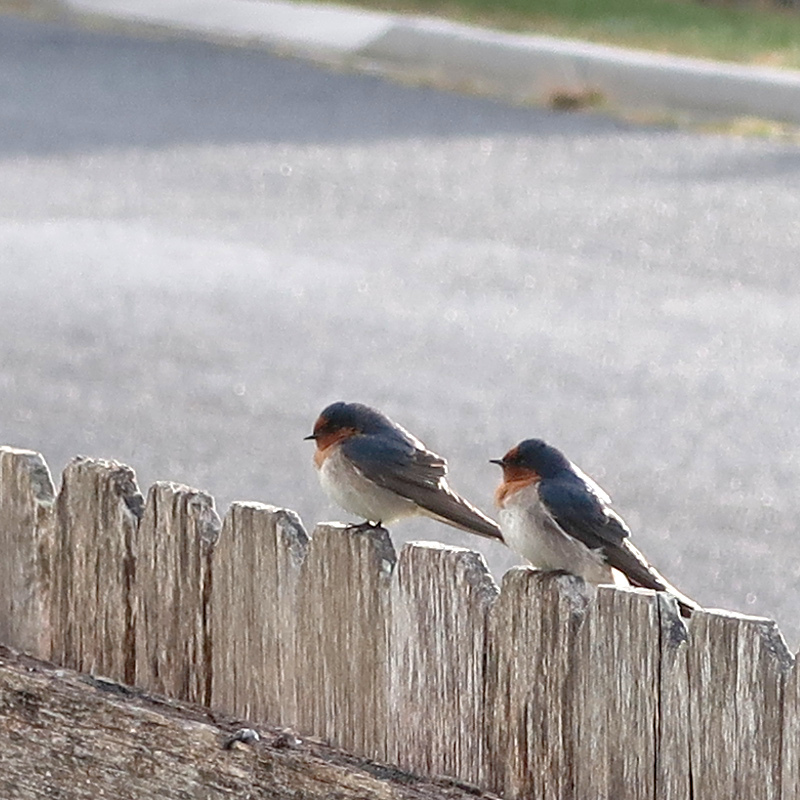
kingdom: Animalia
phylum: Chordata
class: Aves
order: Passeriformes
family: Hirundinidae
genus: Hirundo
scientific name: Hirundo neoxena
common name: Welcome swallow
